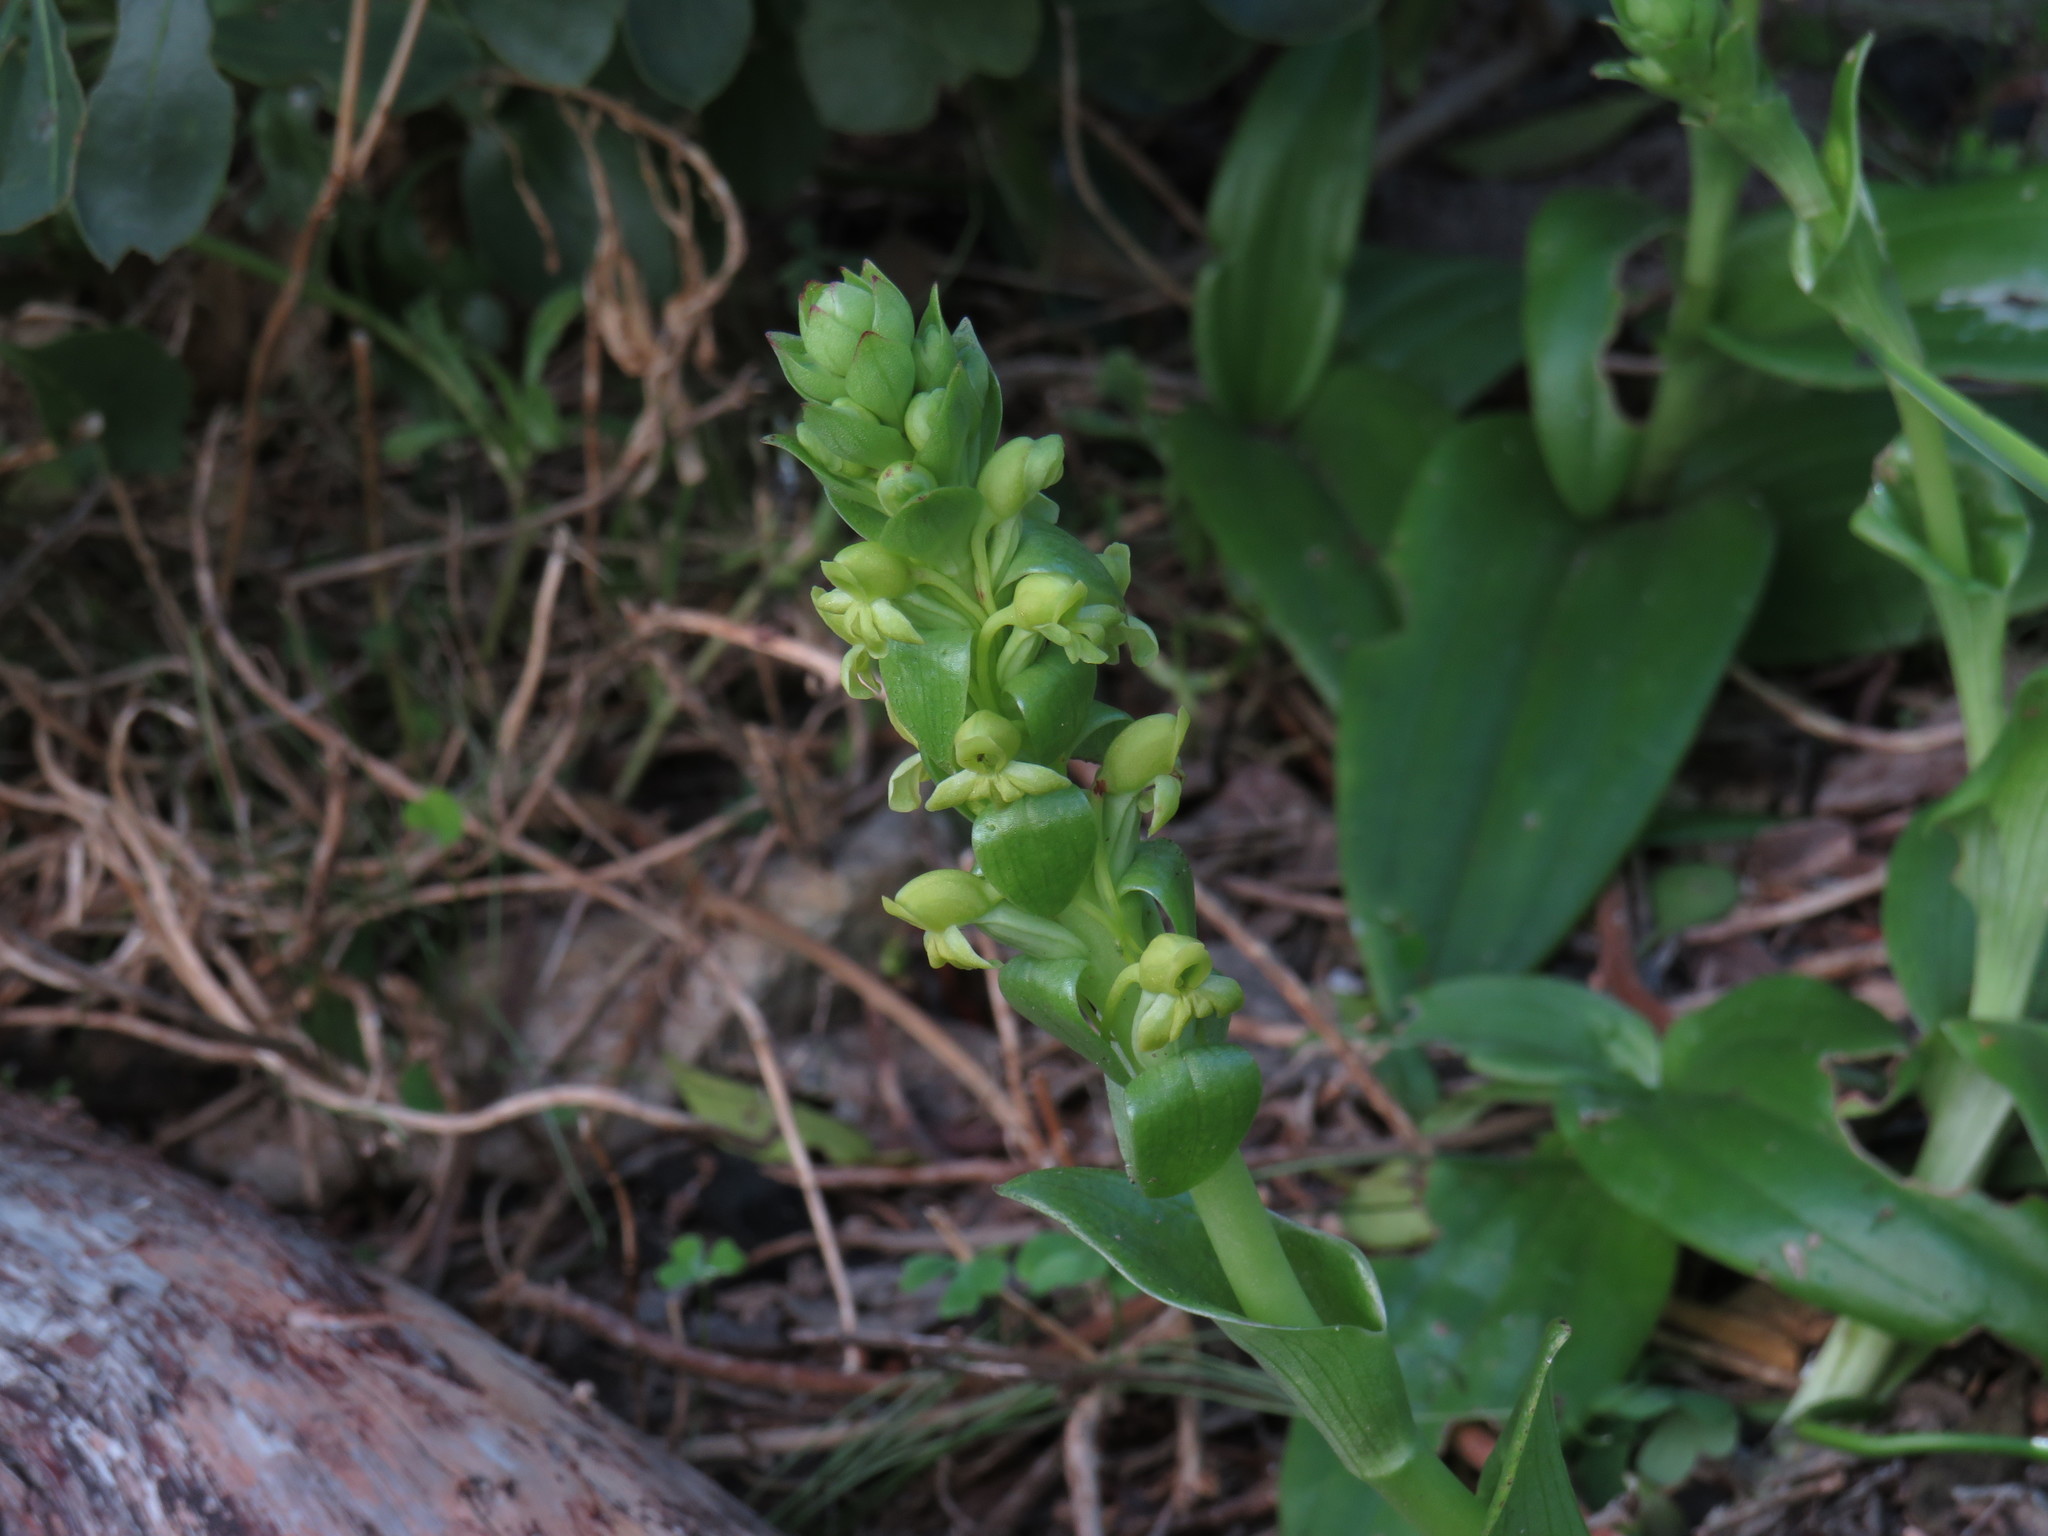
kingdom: Plantae
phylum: Tracheophyta
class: Liliopsida
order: Asparagales
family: Orchidaceae
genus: Satyrium
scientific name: Satyrium odorum
